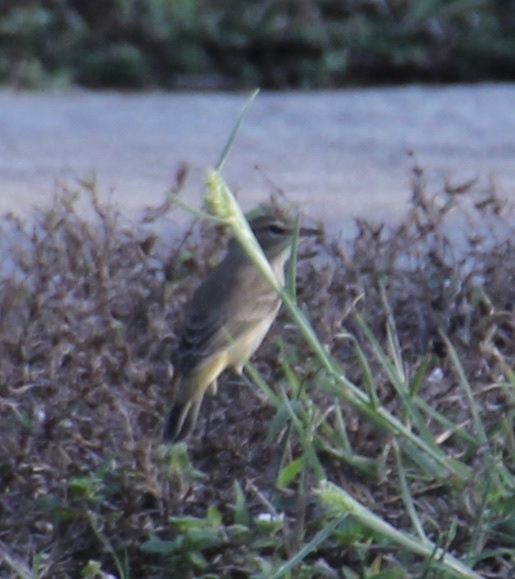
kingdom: Animalia
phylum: Chordata
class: Aves
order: Passeriformes
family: Parulidae
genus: Setophaga
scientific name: Setophaga palmarum
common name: Palm warbler
